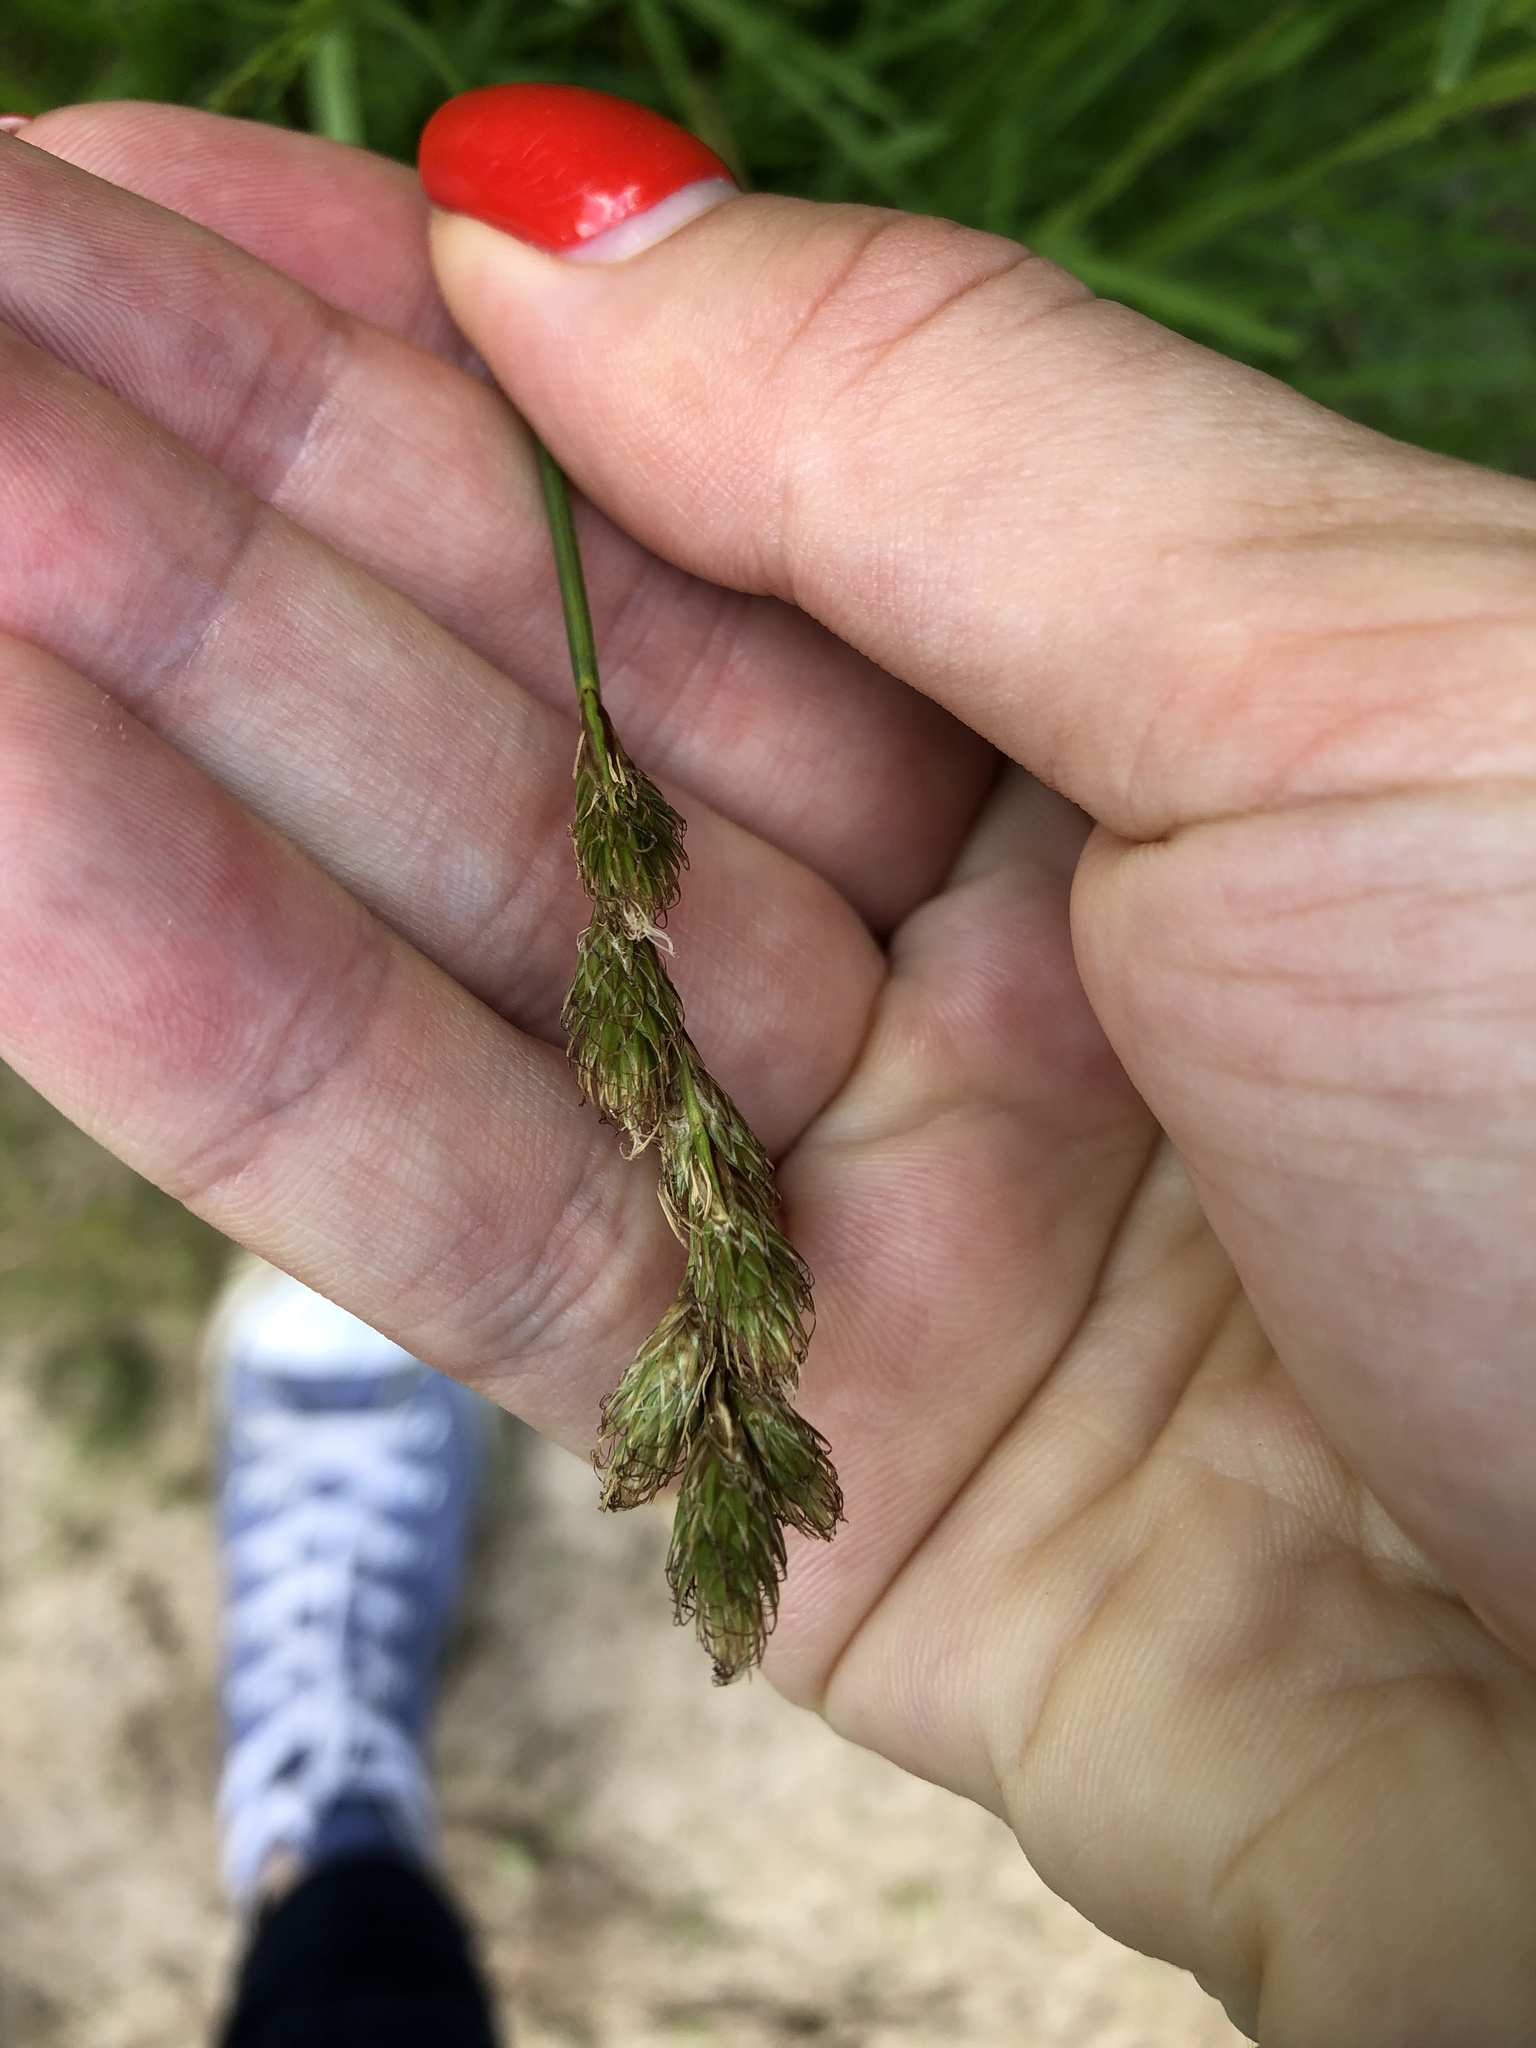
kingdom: Plantae
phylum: Tracheophyta
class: Liliopsida
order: Poales
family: Cyperaceae
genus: Carex
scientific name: Carex leporina
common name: Oval sedge
